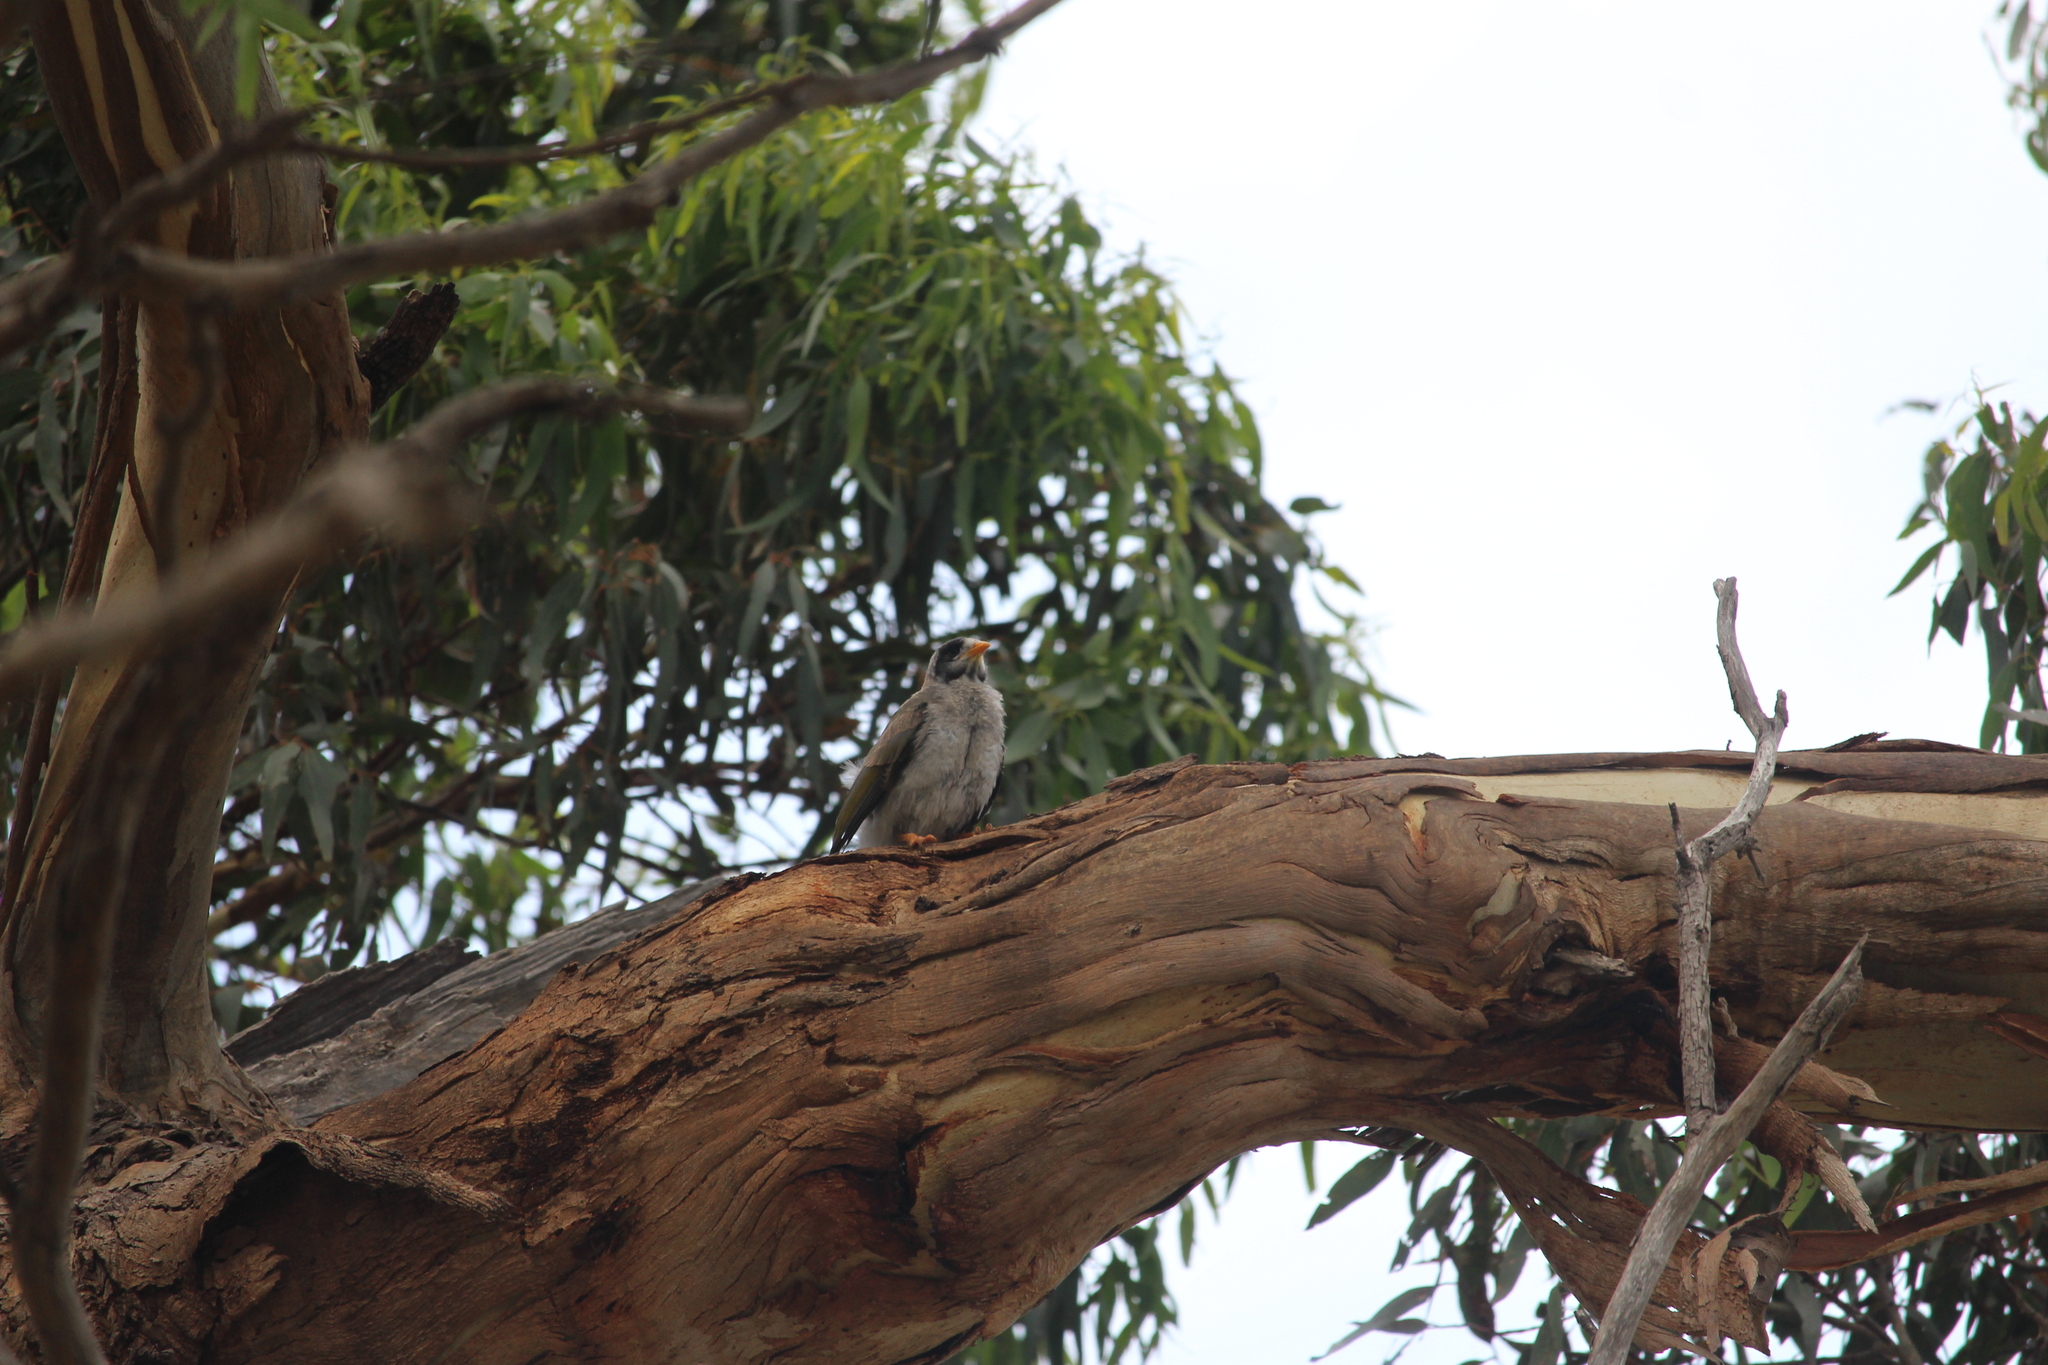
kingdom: Animalia
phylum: Chordata
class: Aves
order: Passeriformes
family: Meliphagidae
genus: Manorina
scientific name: Manorina melanocephala
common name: Noisy miner
